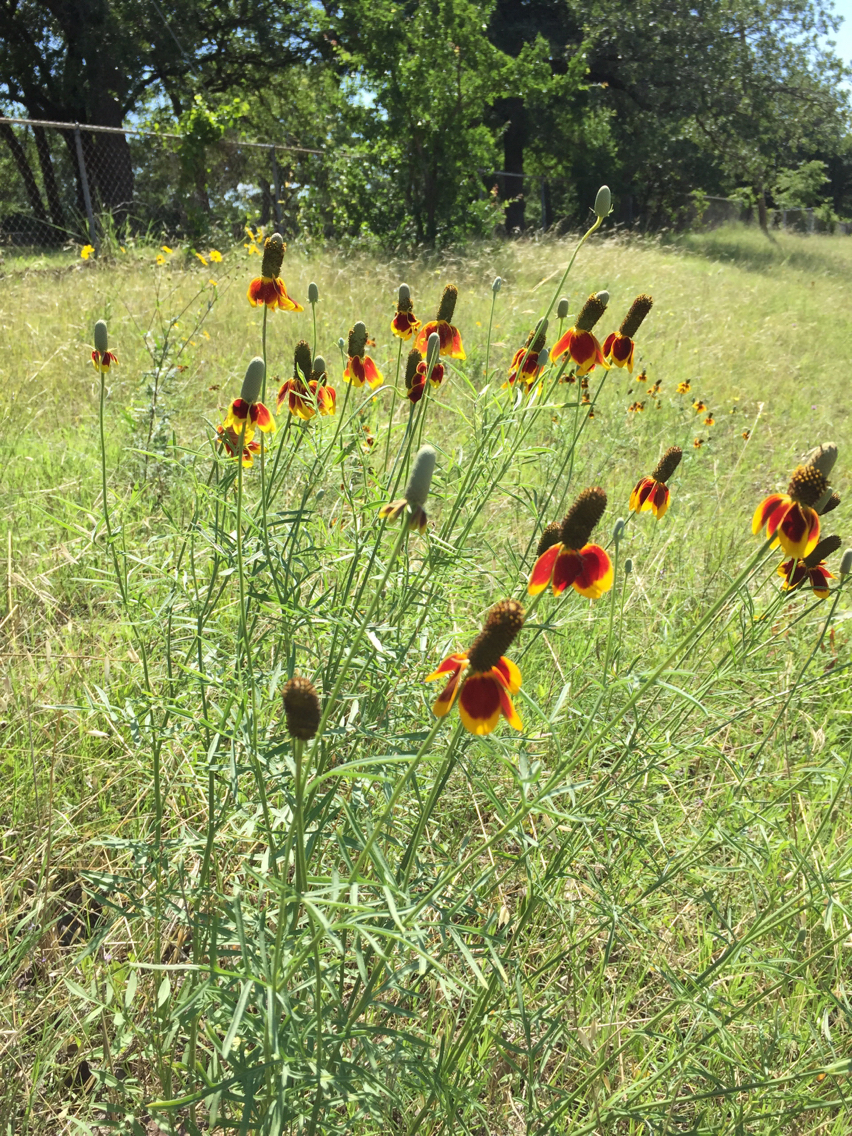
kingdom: Plantae
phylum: Tracheophyta
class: Magnoliopsida
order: Asterales
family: Asteraceae
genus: Ratibida
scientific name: Ratibida columnifera
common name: Prairie coneflower
